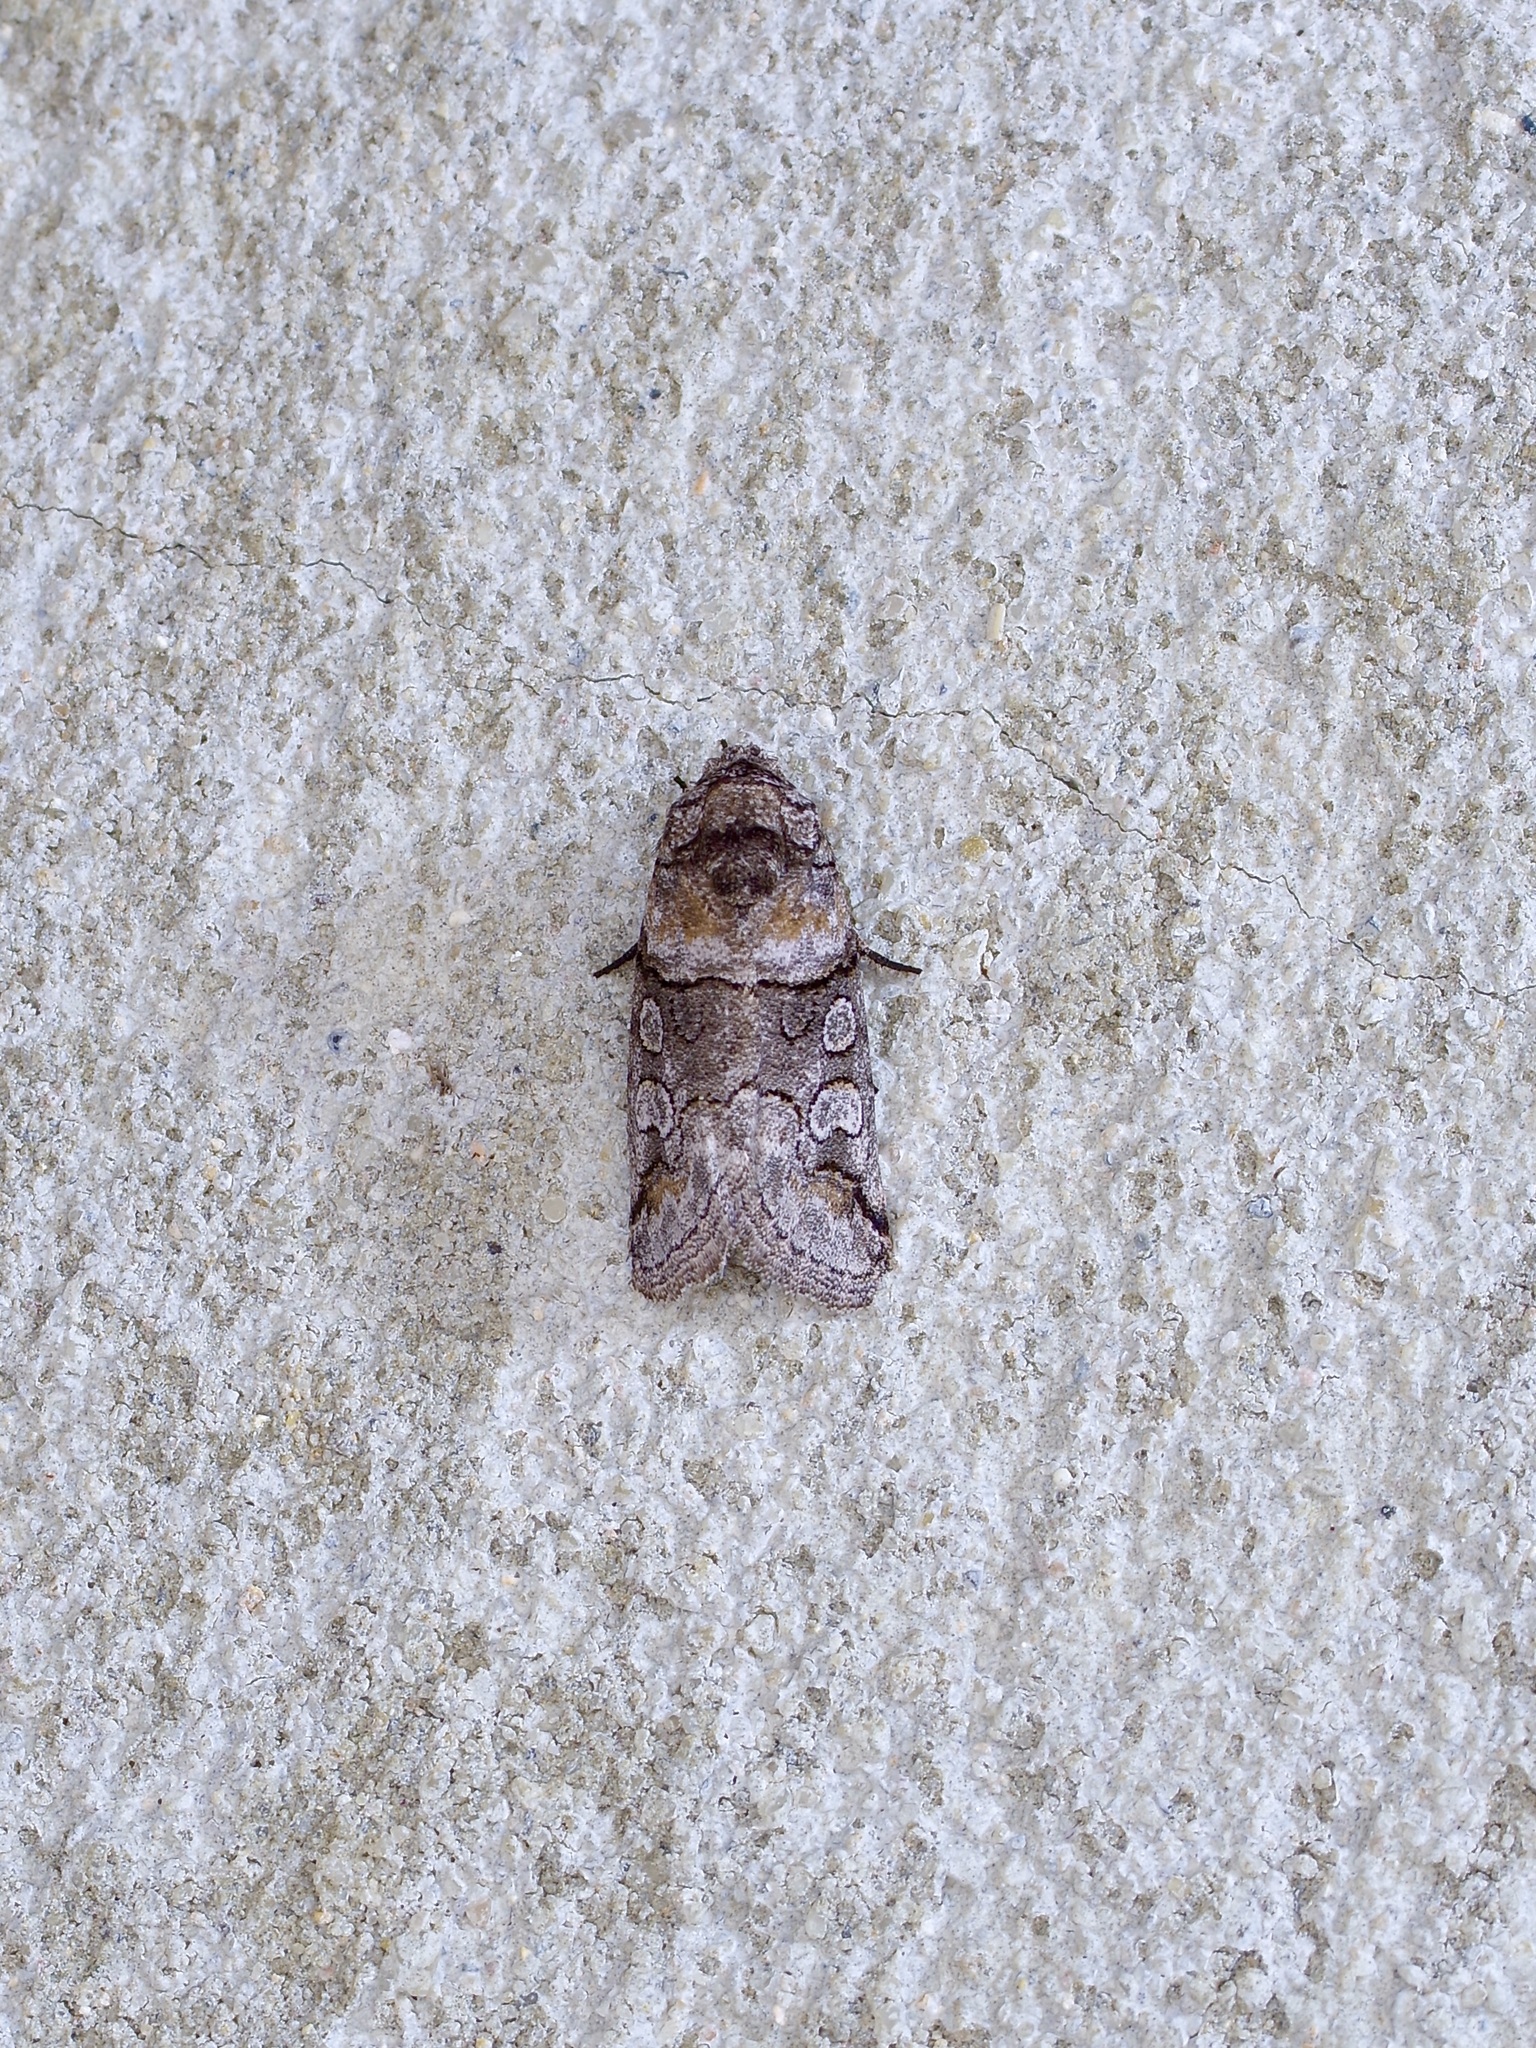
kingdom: Animalia
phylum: Arthropoda
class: Insecta
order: Lepidoptera
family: Noctuidae
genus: Anycteola
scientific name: Anycteola fotelloides
